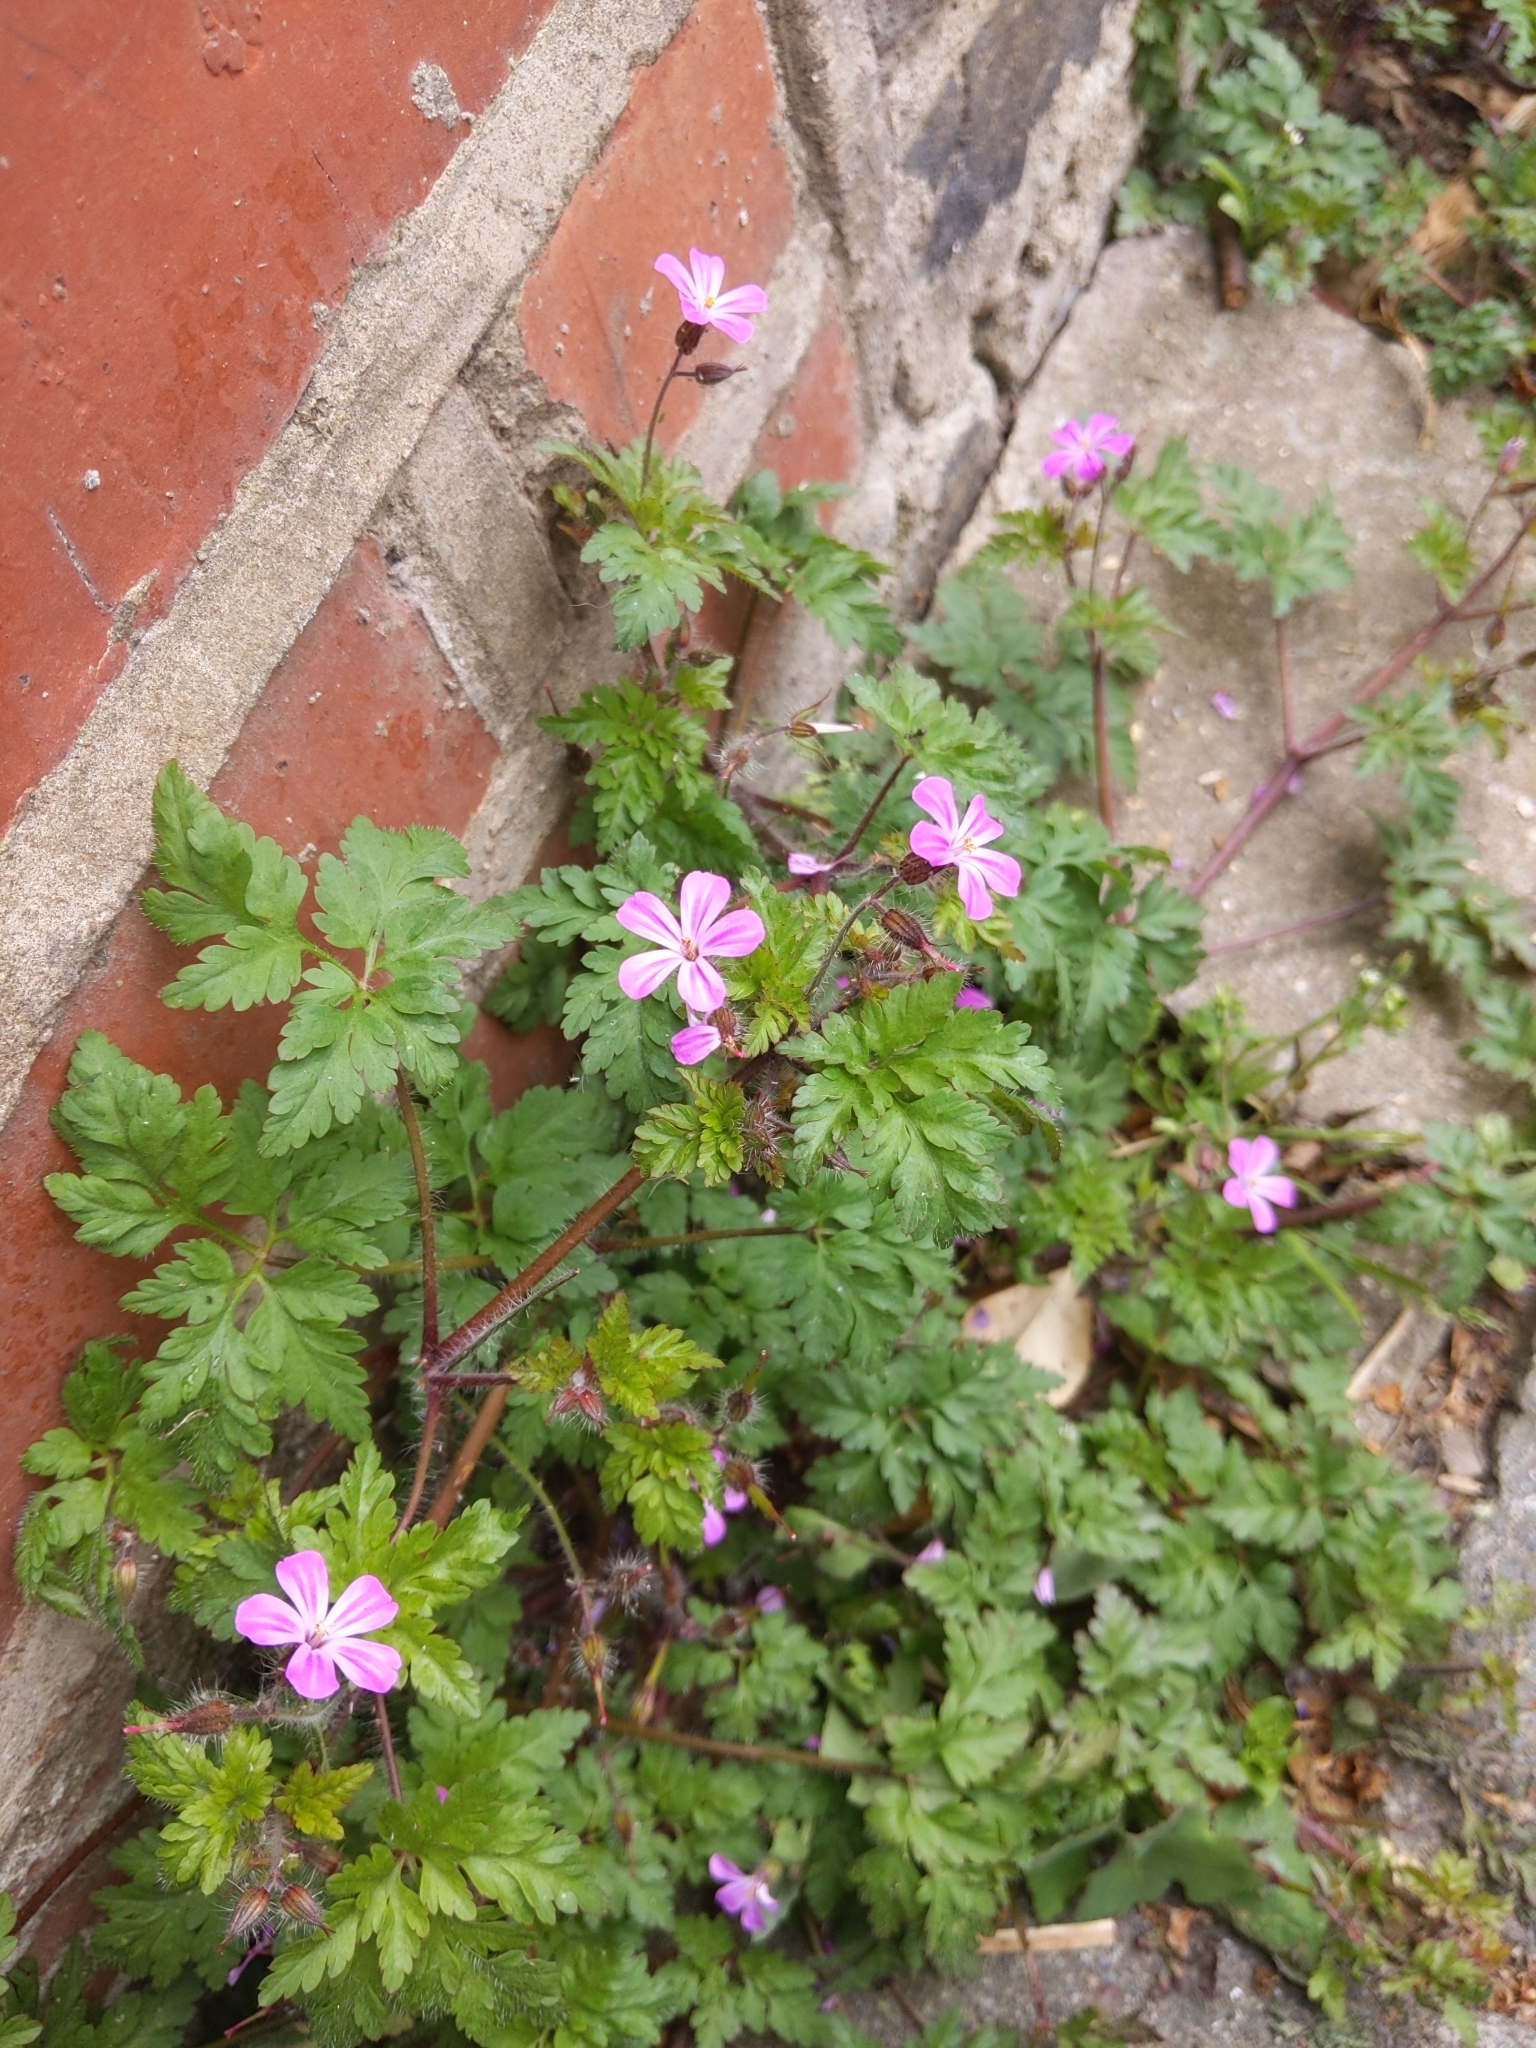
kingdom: Plantae
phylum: Tracheophyta
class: Magnoliopsida
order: Geraniales
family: Geraniaceae
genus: Geranium
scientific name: Geranium robertianum
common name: Herb-robert
